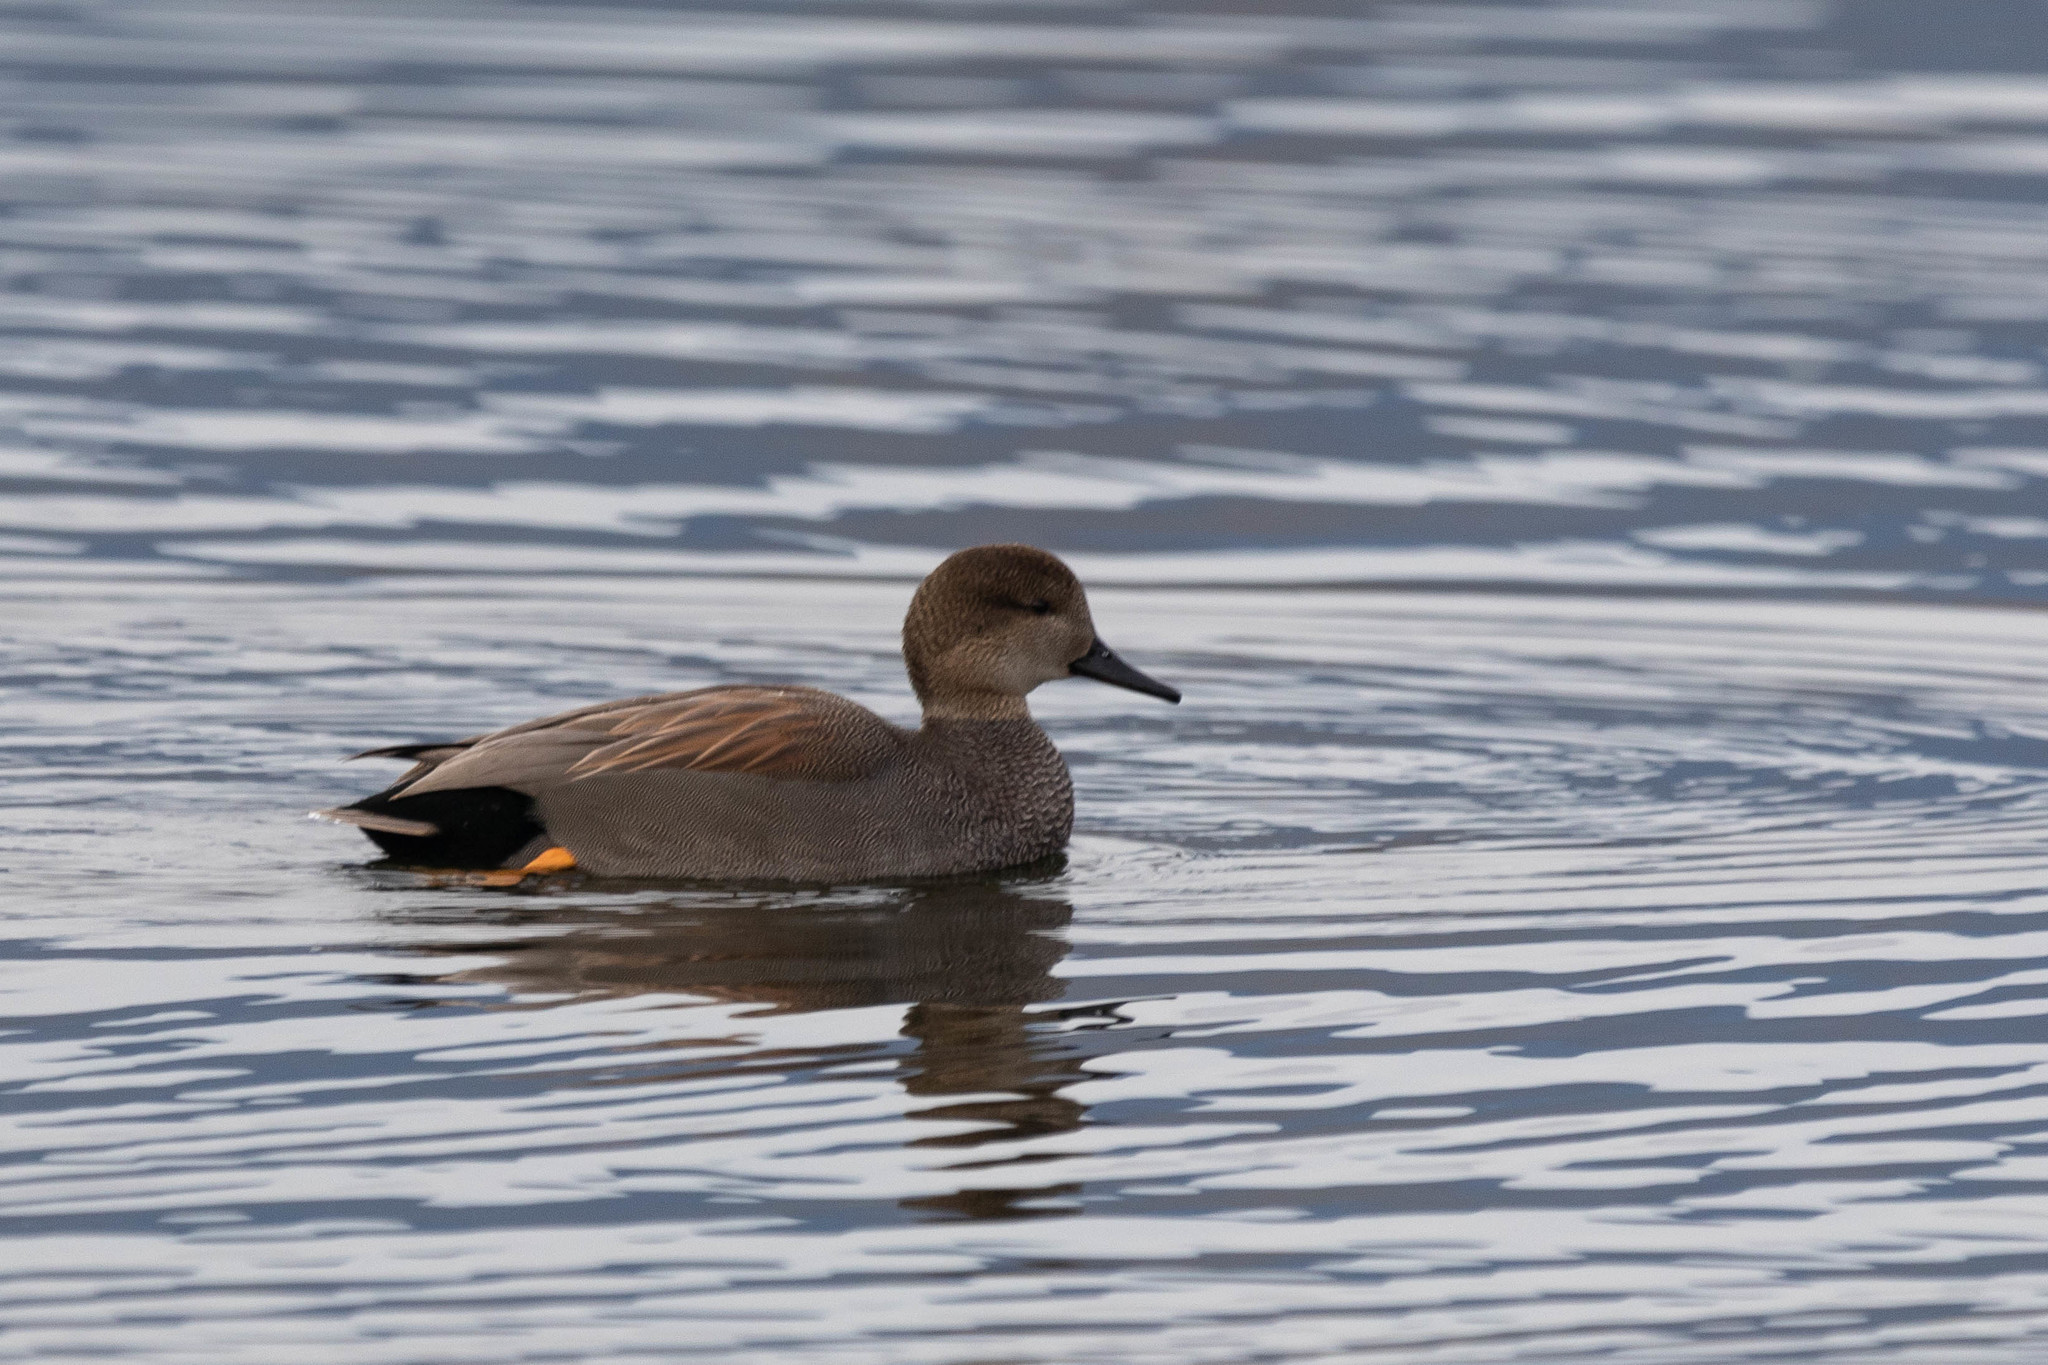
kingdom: Animalia
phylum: Chordata
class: Aves
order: Anseriformes
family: Anatidae
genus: Mareca
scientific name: Mareca strepera
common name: Gadwall
